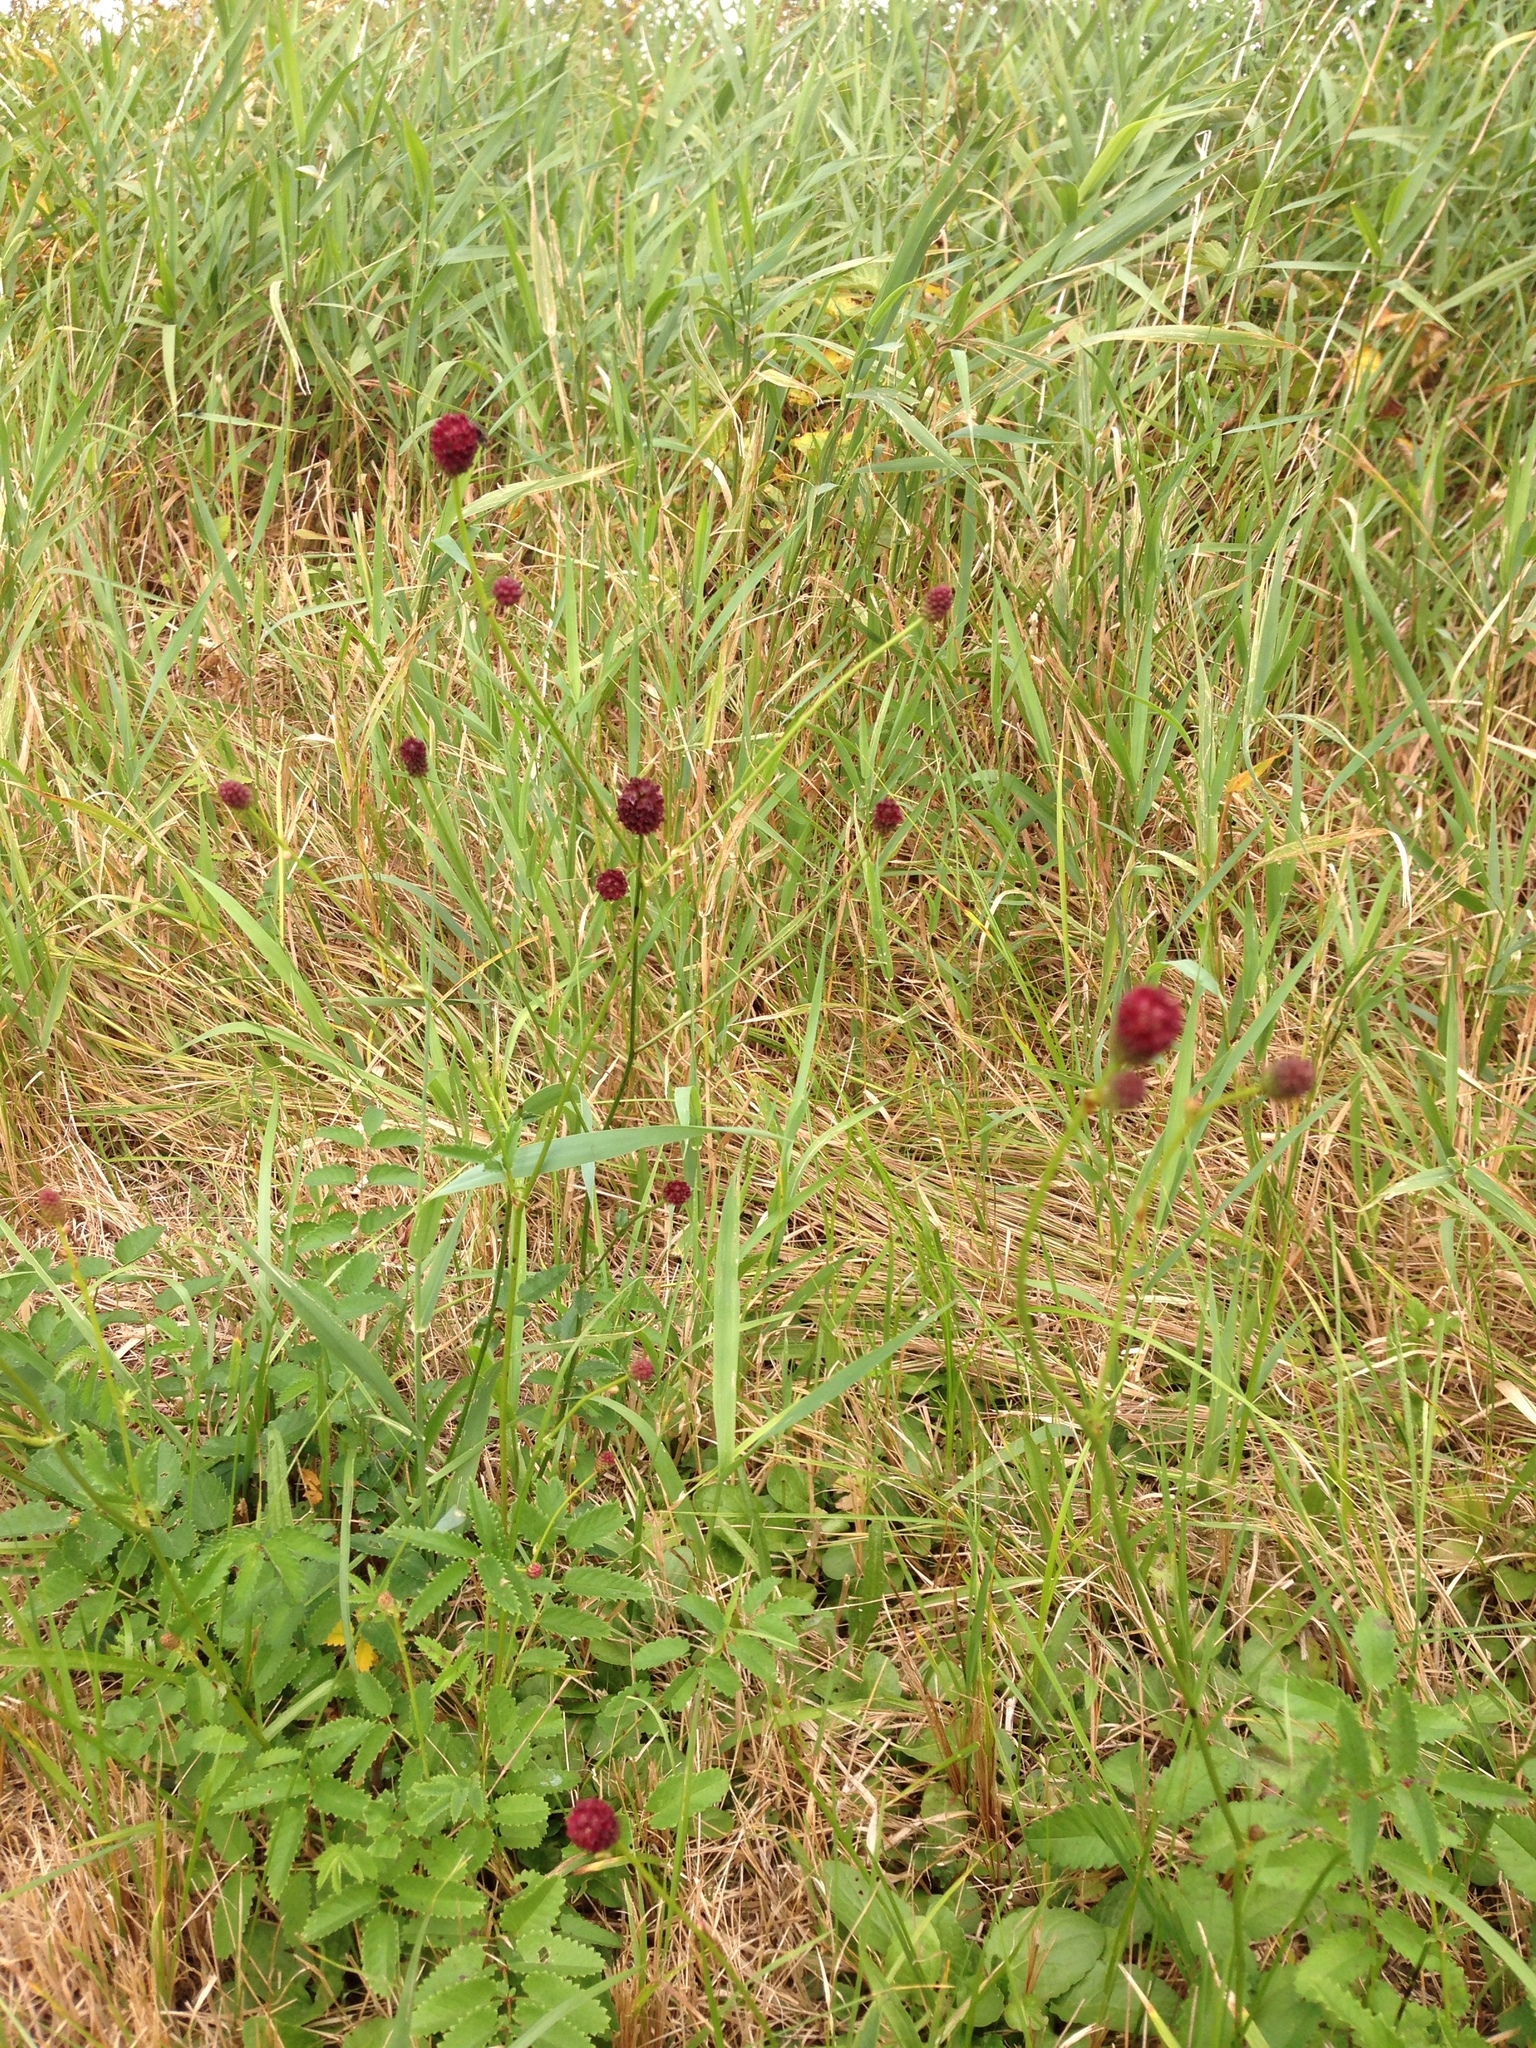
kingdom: Plantae
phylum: Tracheophyta
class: Magnoliopsida
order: Rosales
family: Rosaceae
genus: Sanguisorba
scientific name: Sanguisorba officinalis
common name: Great burnet
